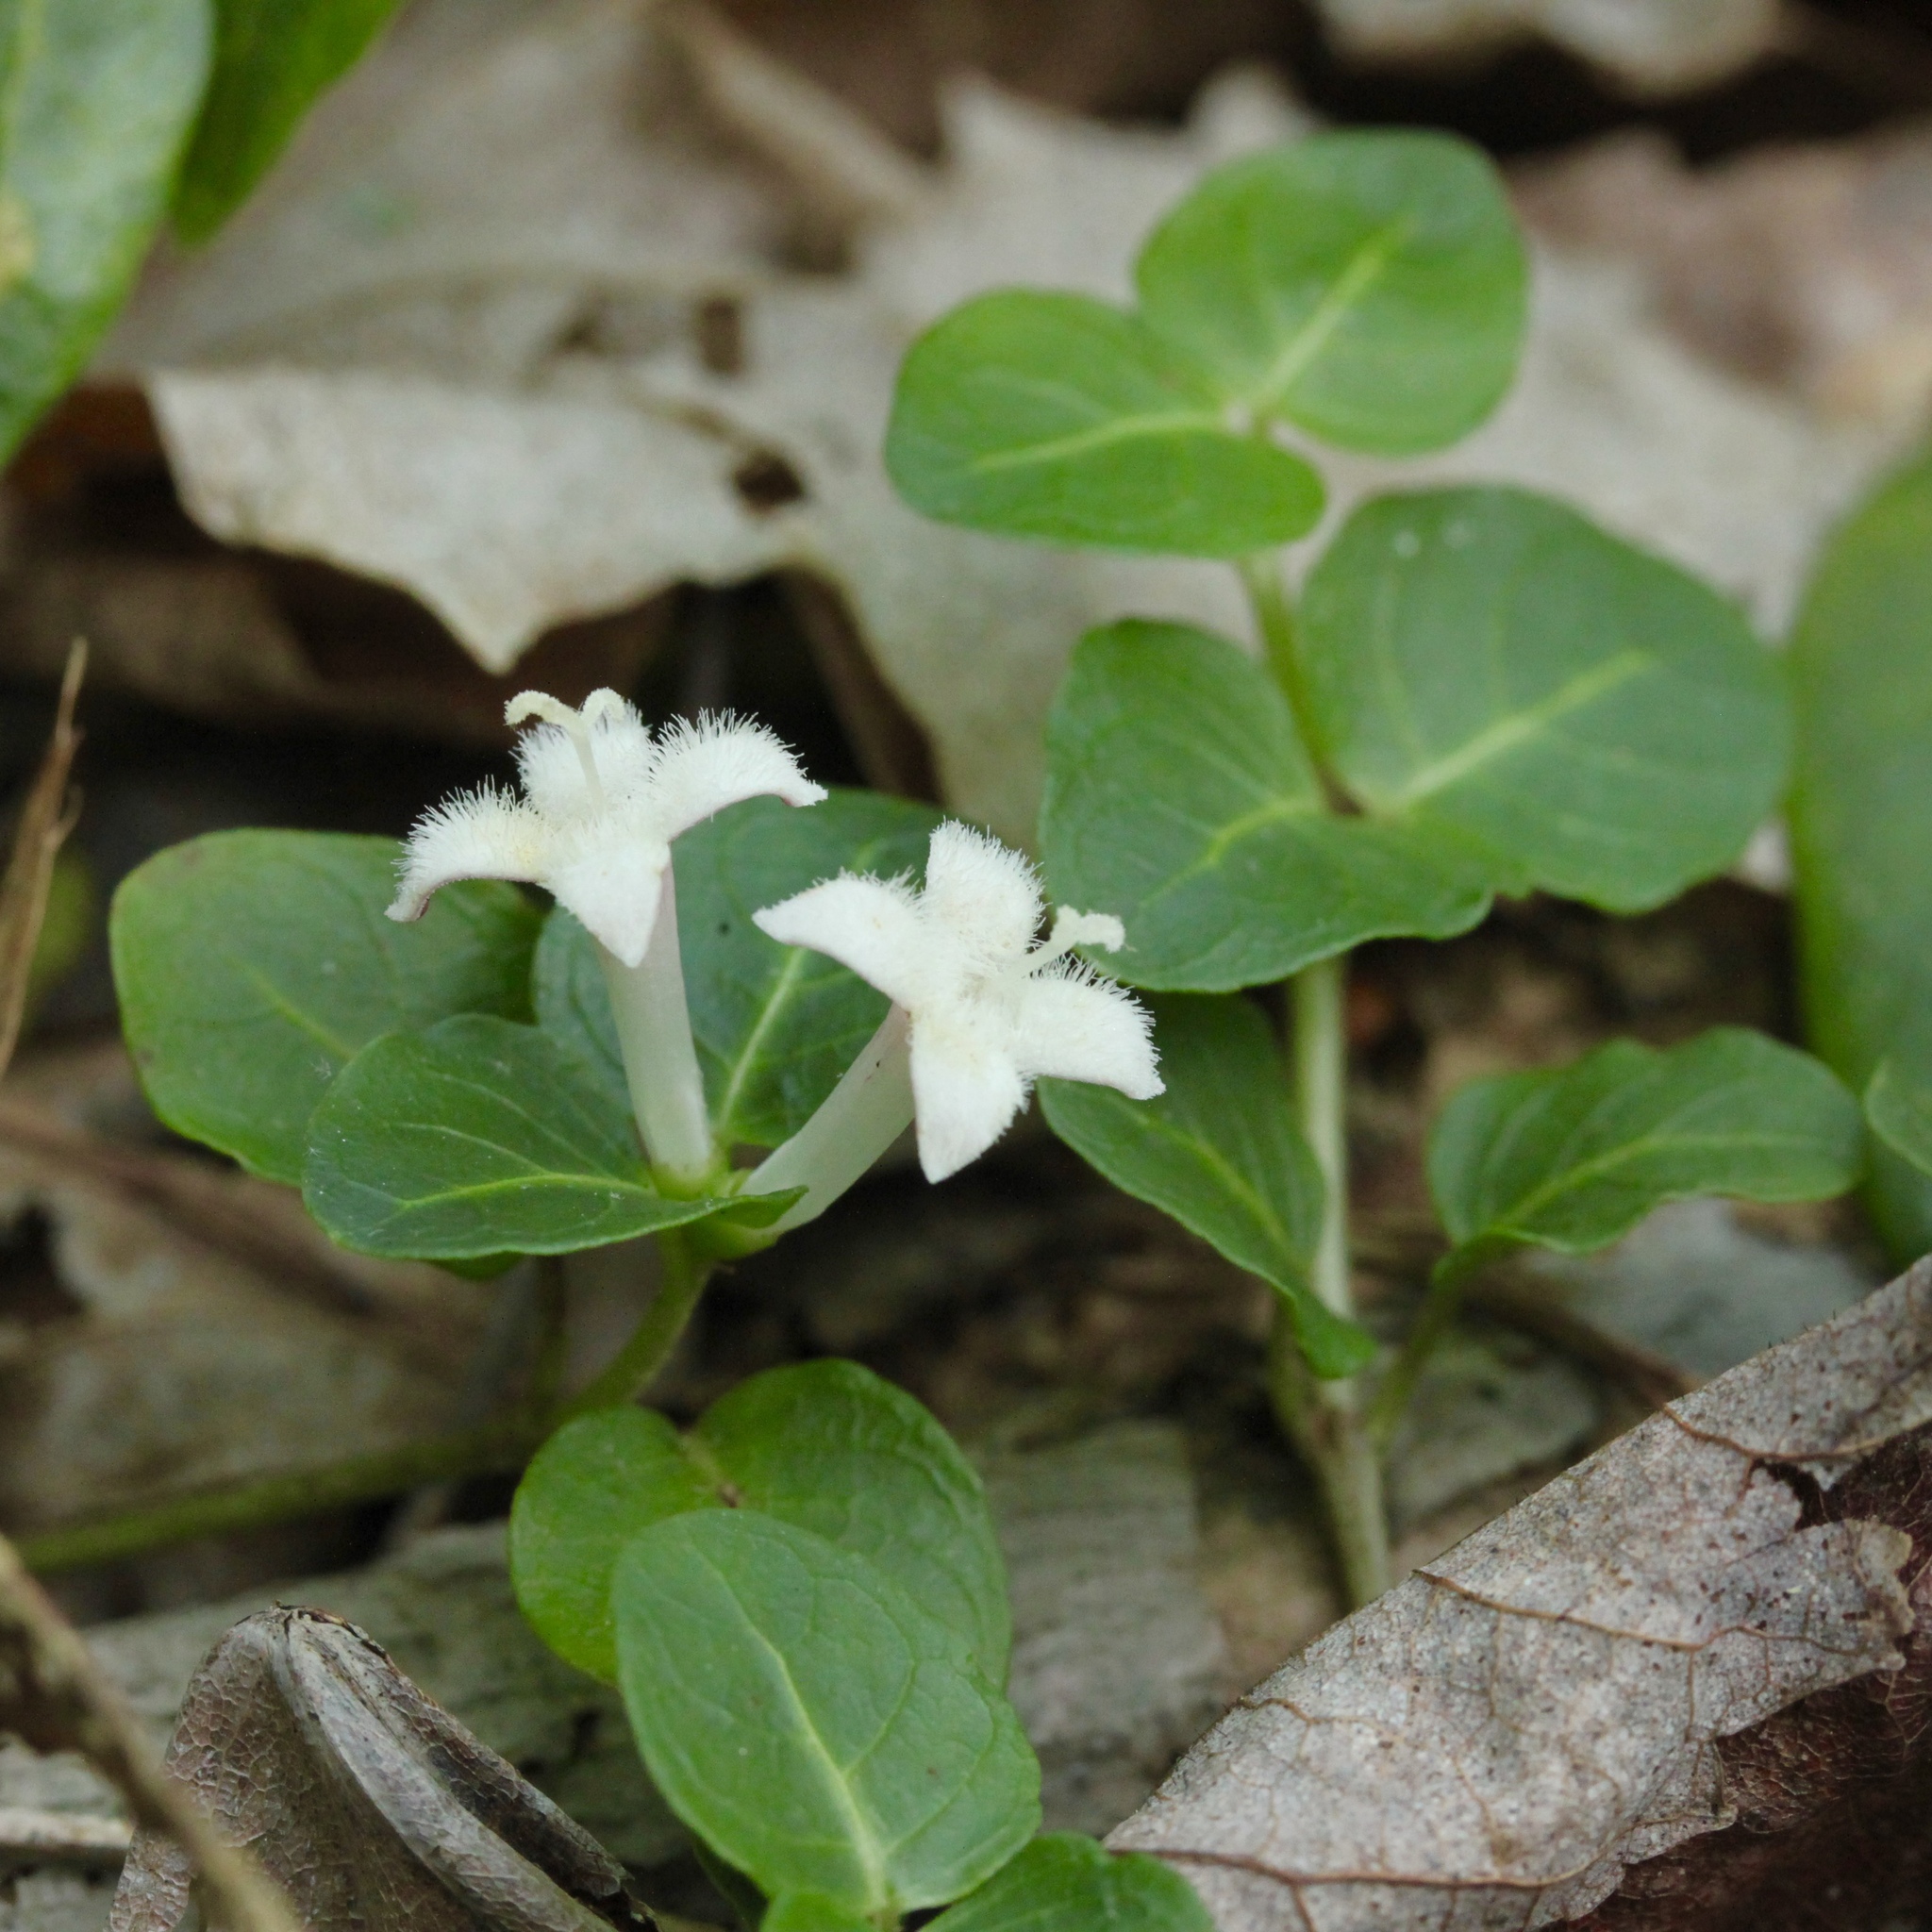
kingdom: Plantae
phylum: Tracheophyta
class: Magnoliopsida
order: Gentianales
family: Rubiaceae
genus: Mitchella
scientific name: Mitchella repens
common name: Partridge-berry
